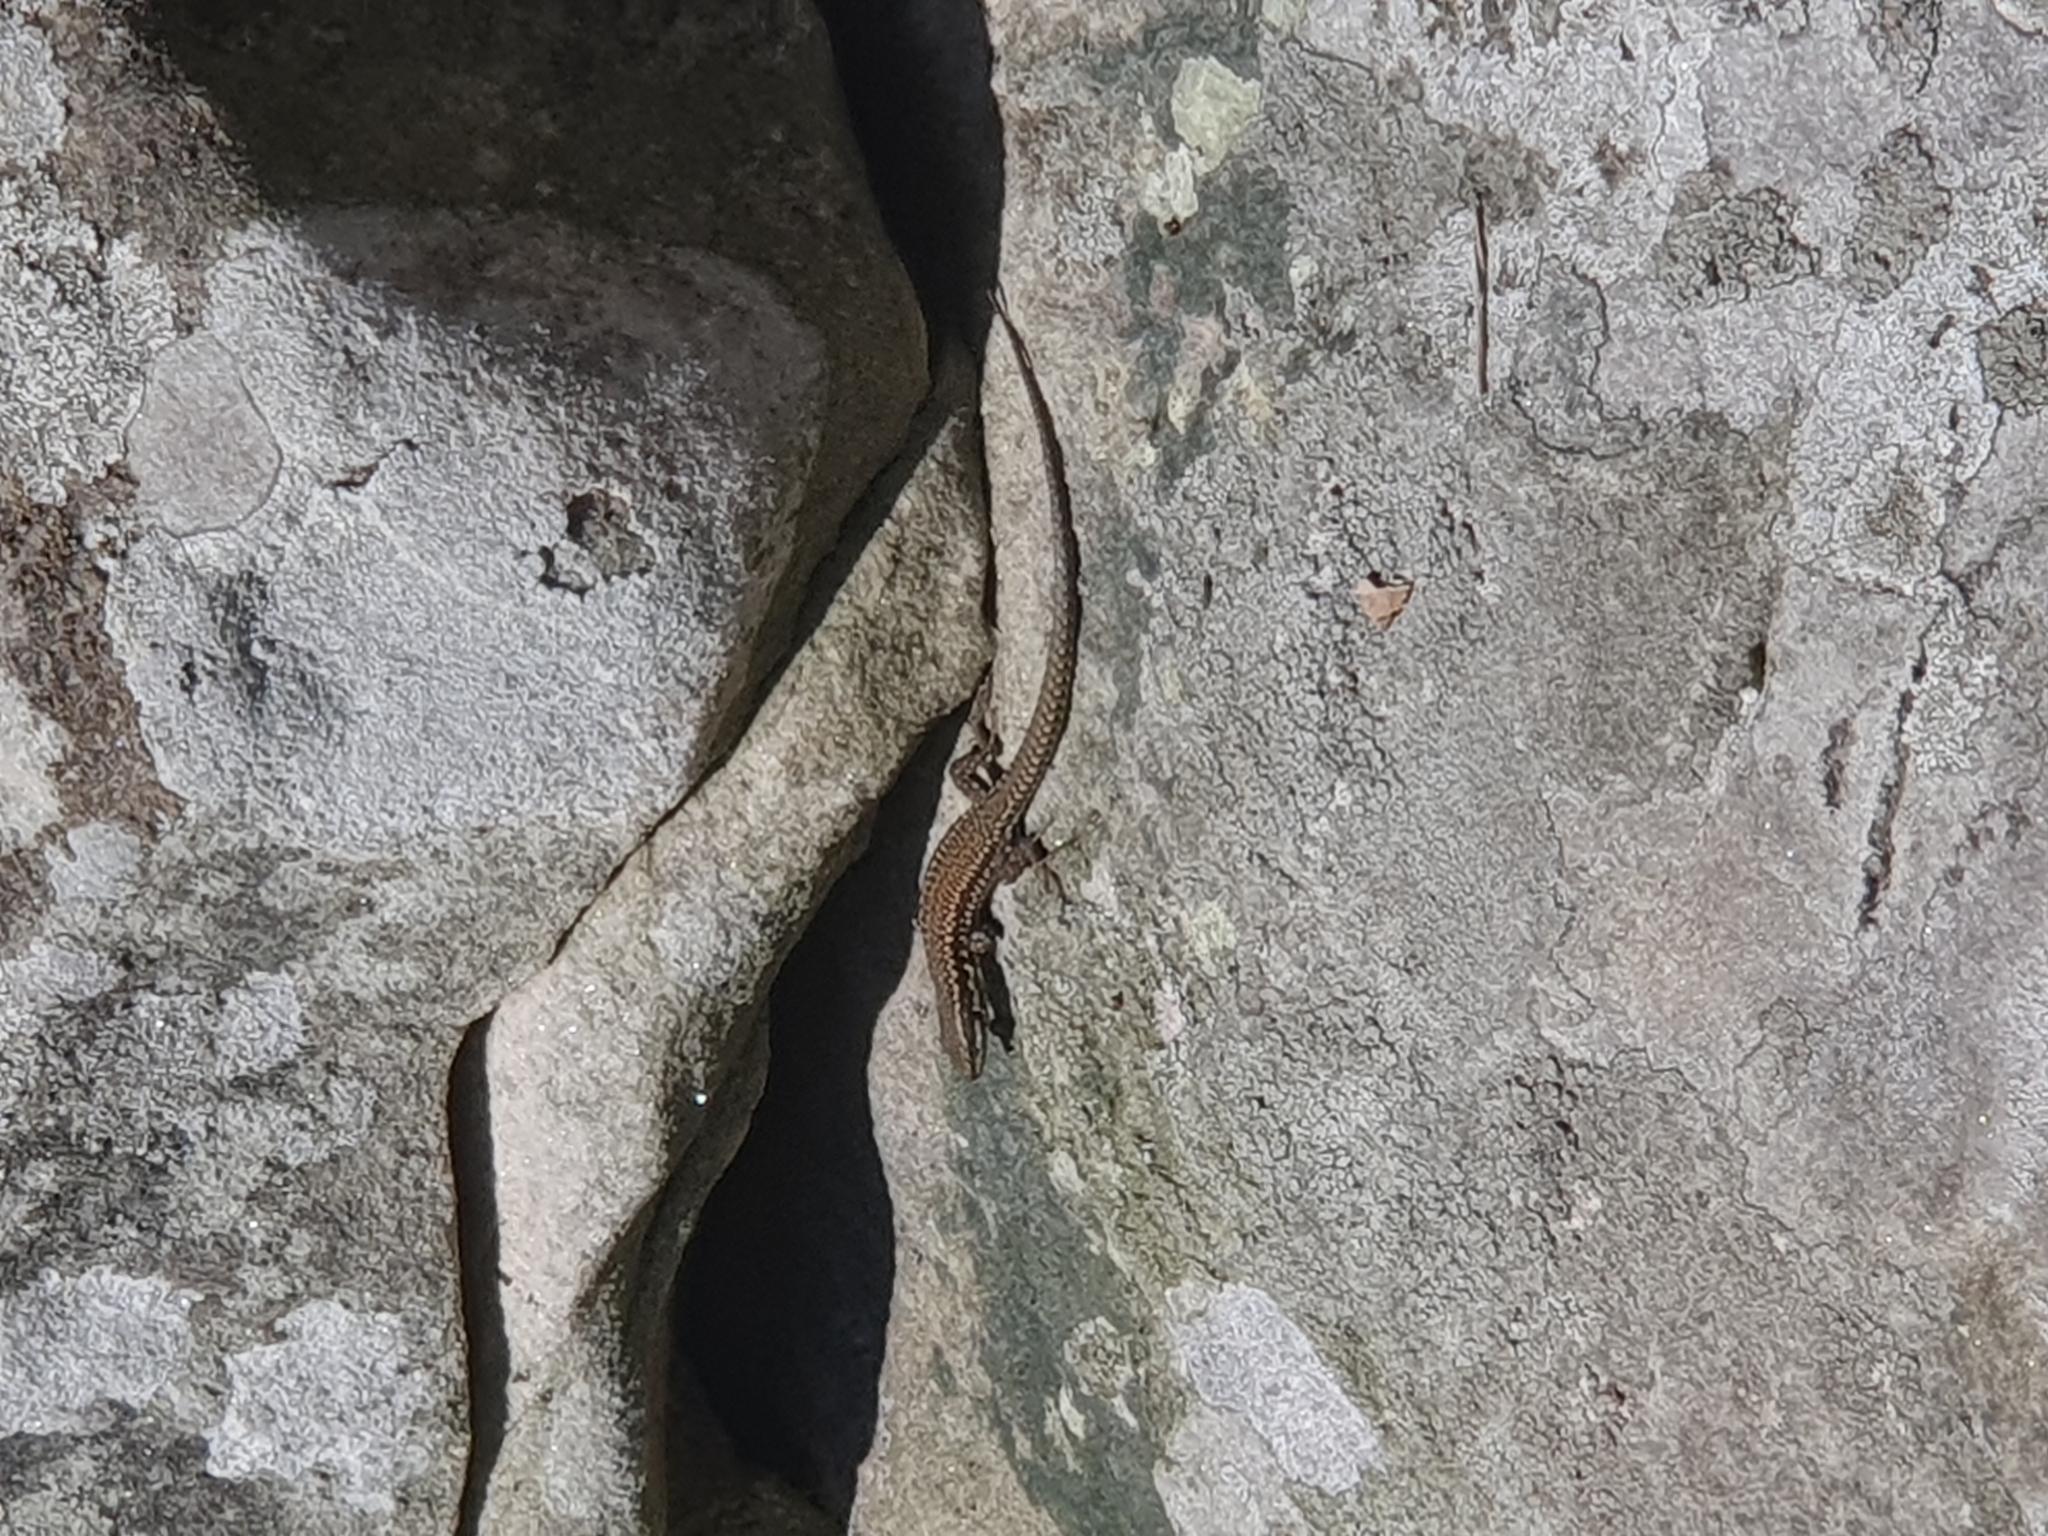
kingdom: Animalia
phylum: Chordata
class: Squamata
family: Lacertidae
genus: Podarcis
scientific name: Podarcis muralis
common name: Common wall lizard
